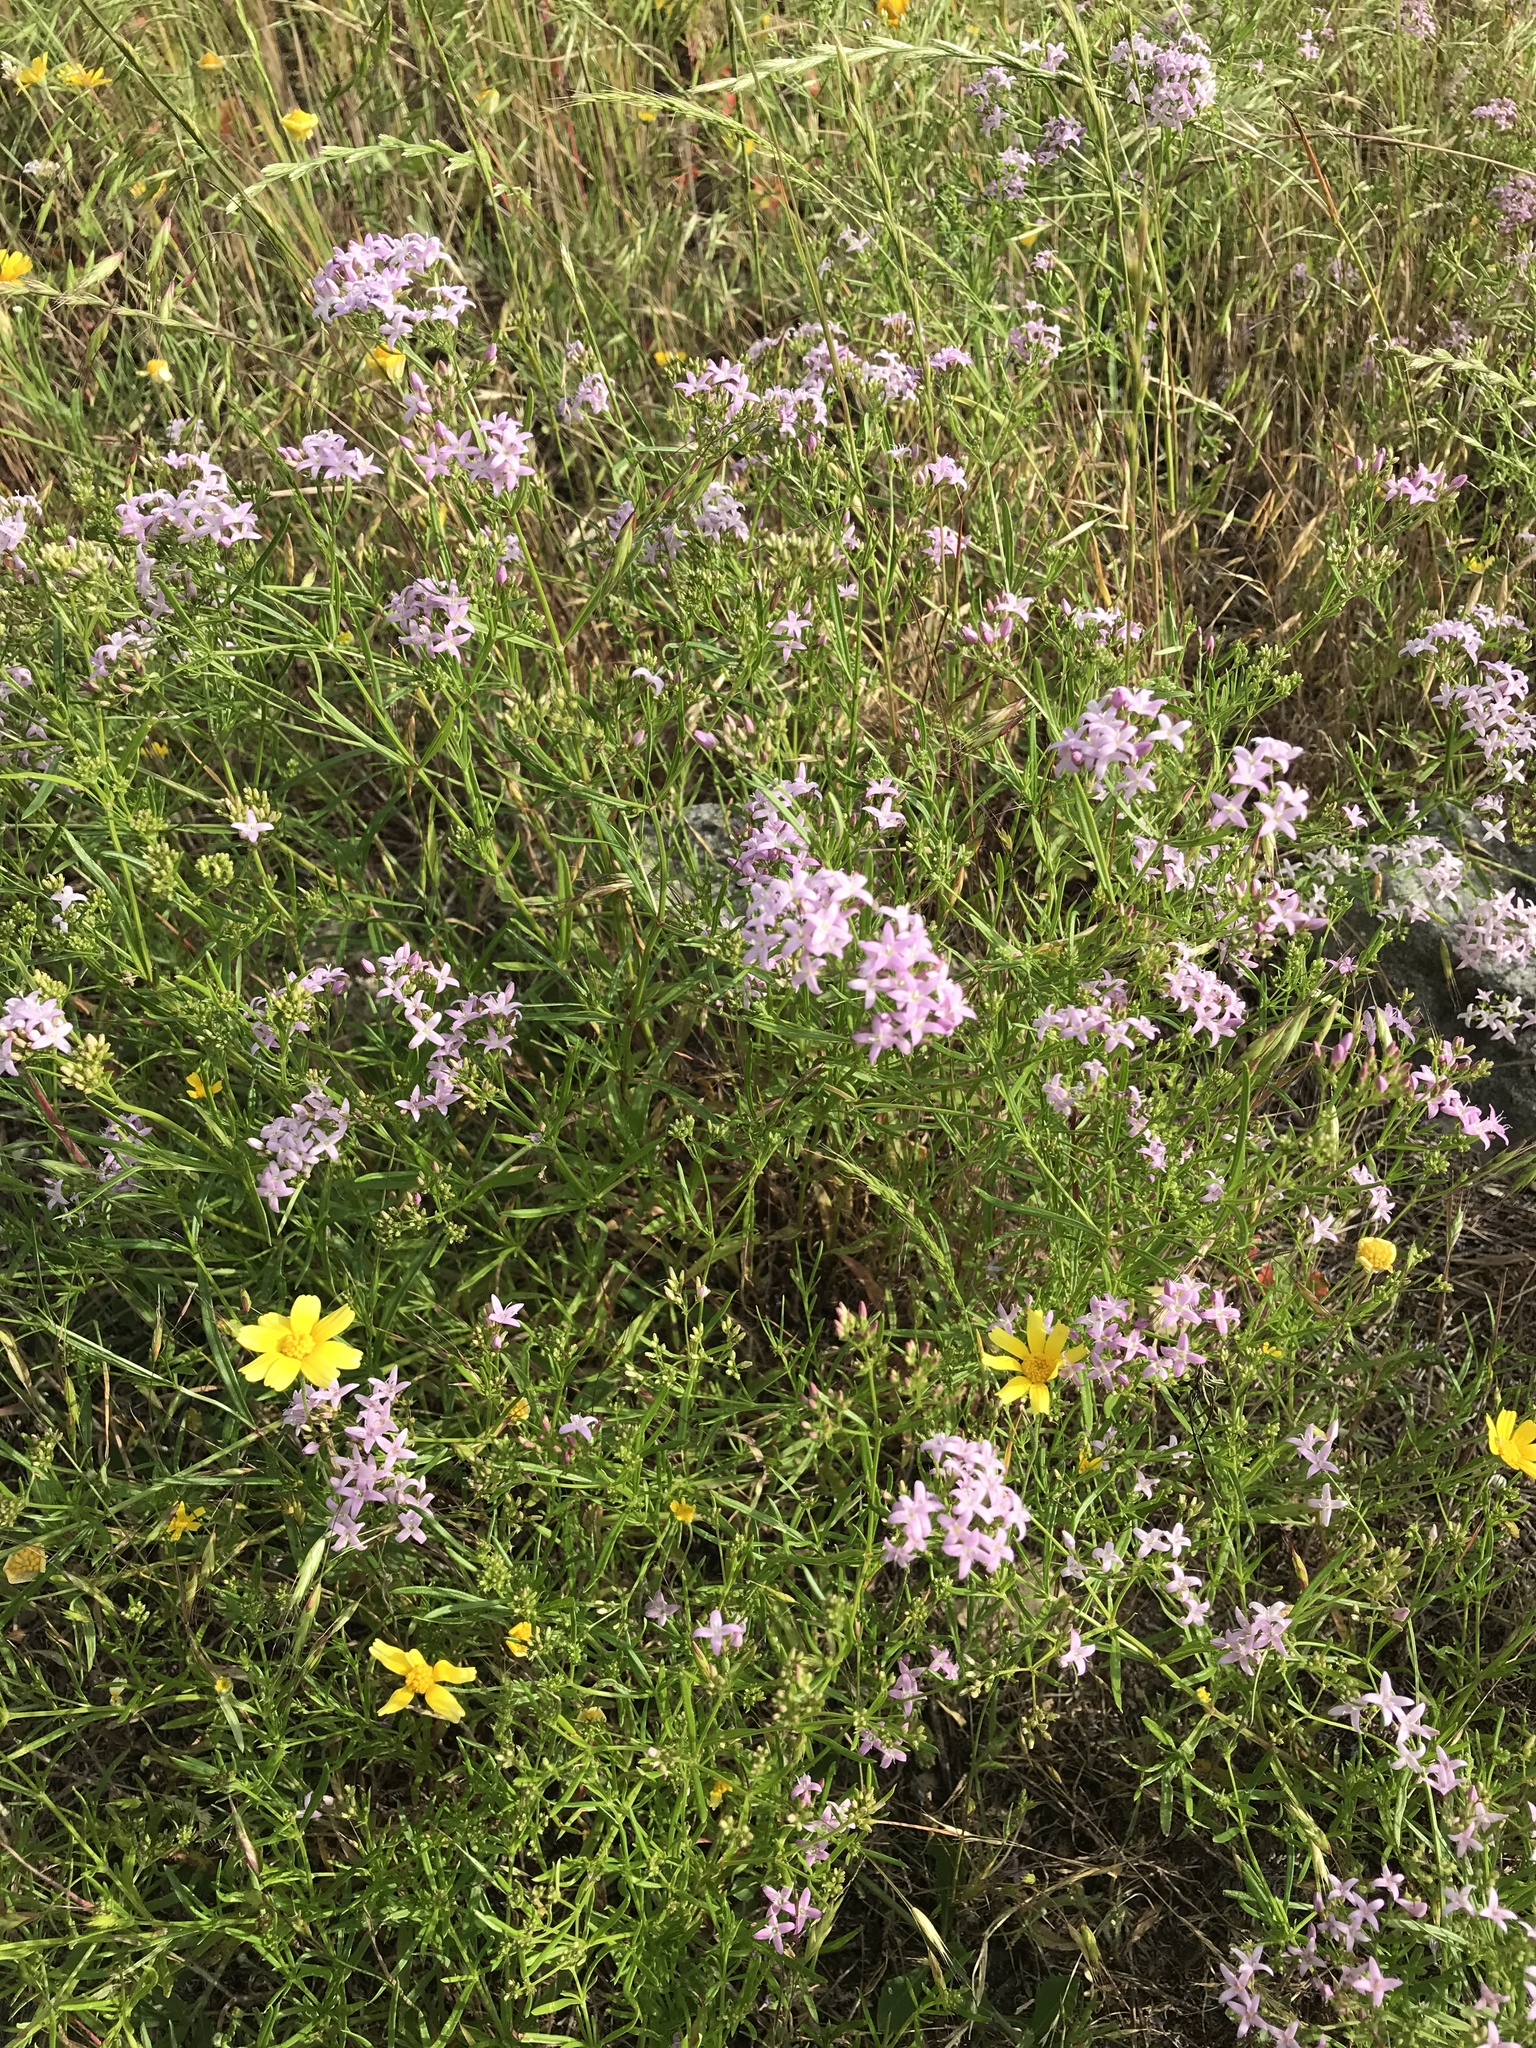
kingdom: Plantae
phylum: Tracheophyta
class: Magnoliopsida
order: Gentianales
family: Rubiaceae
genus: Stenaria
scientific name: Stenaria nigricans
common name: Diamondflowers
